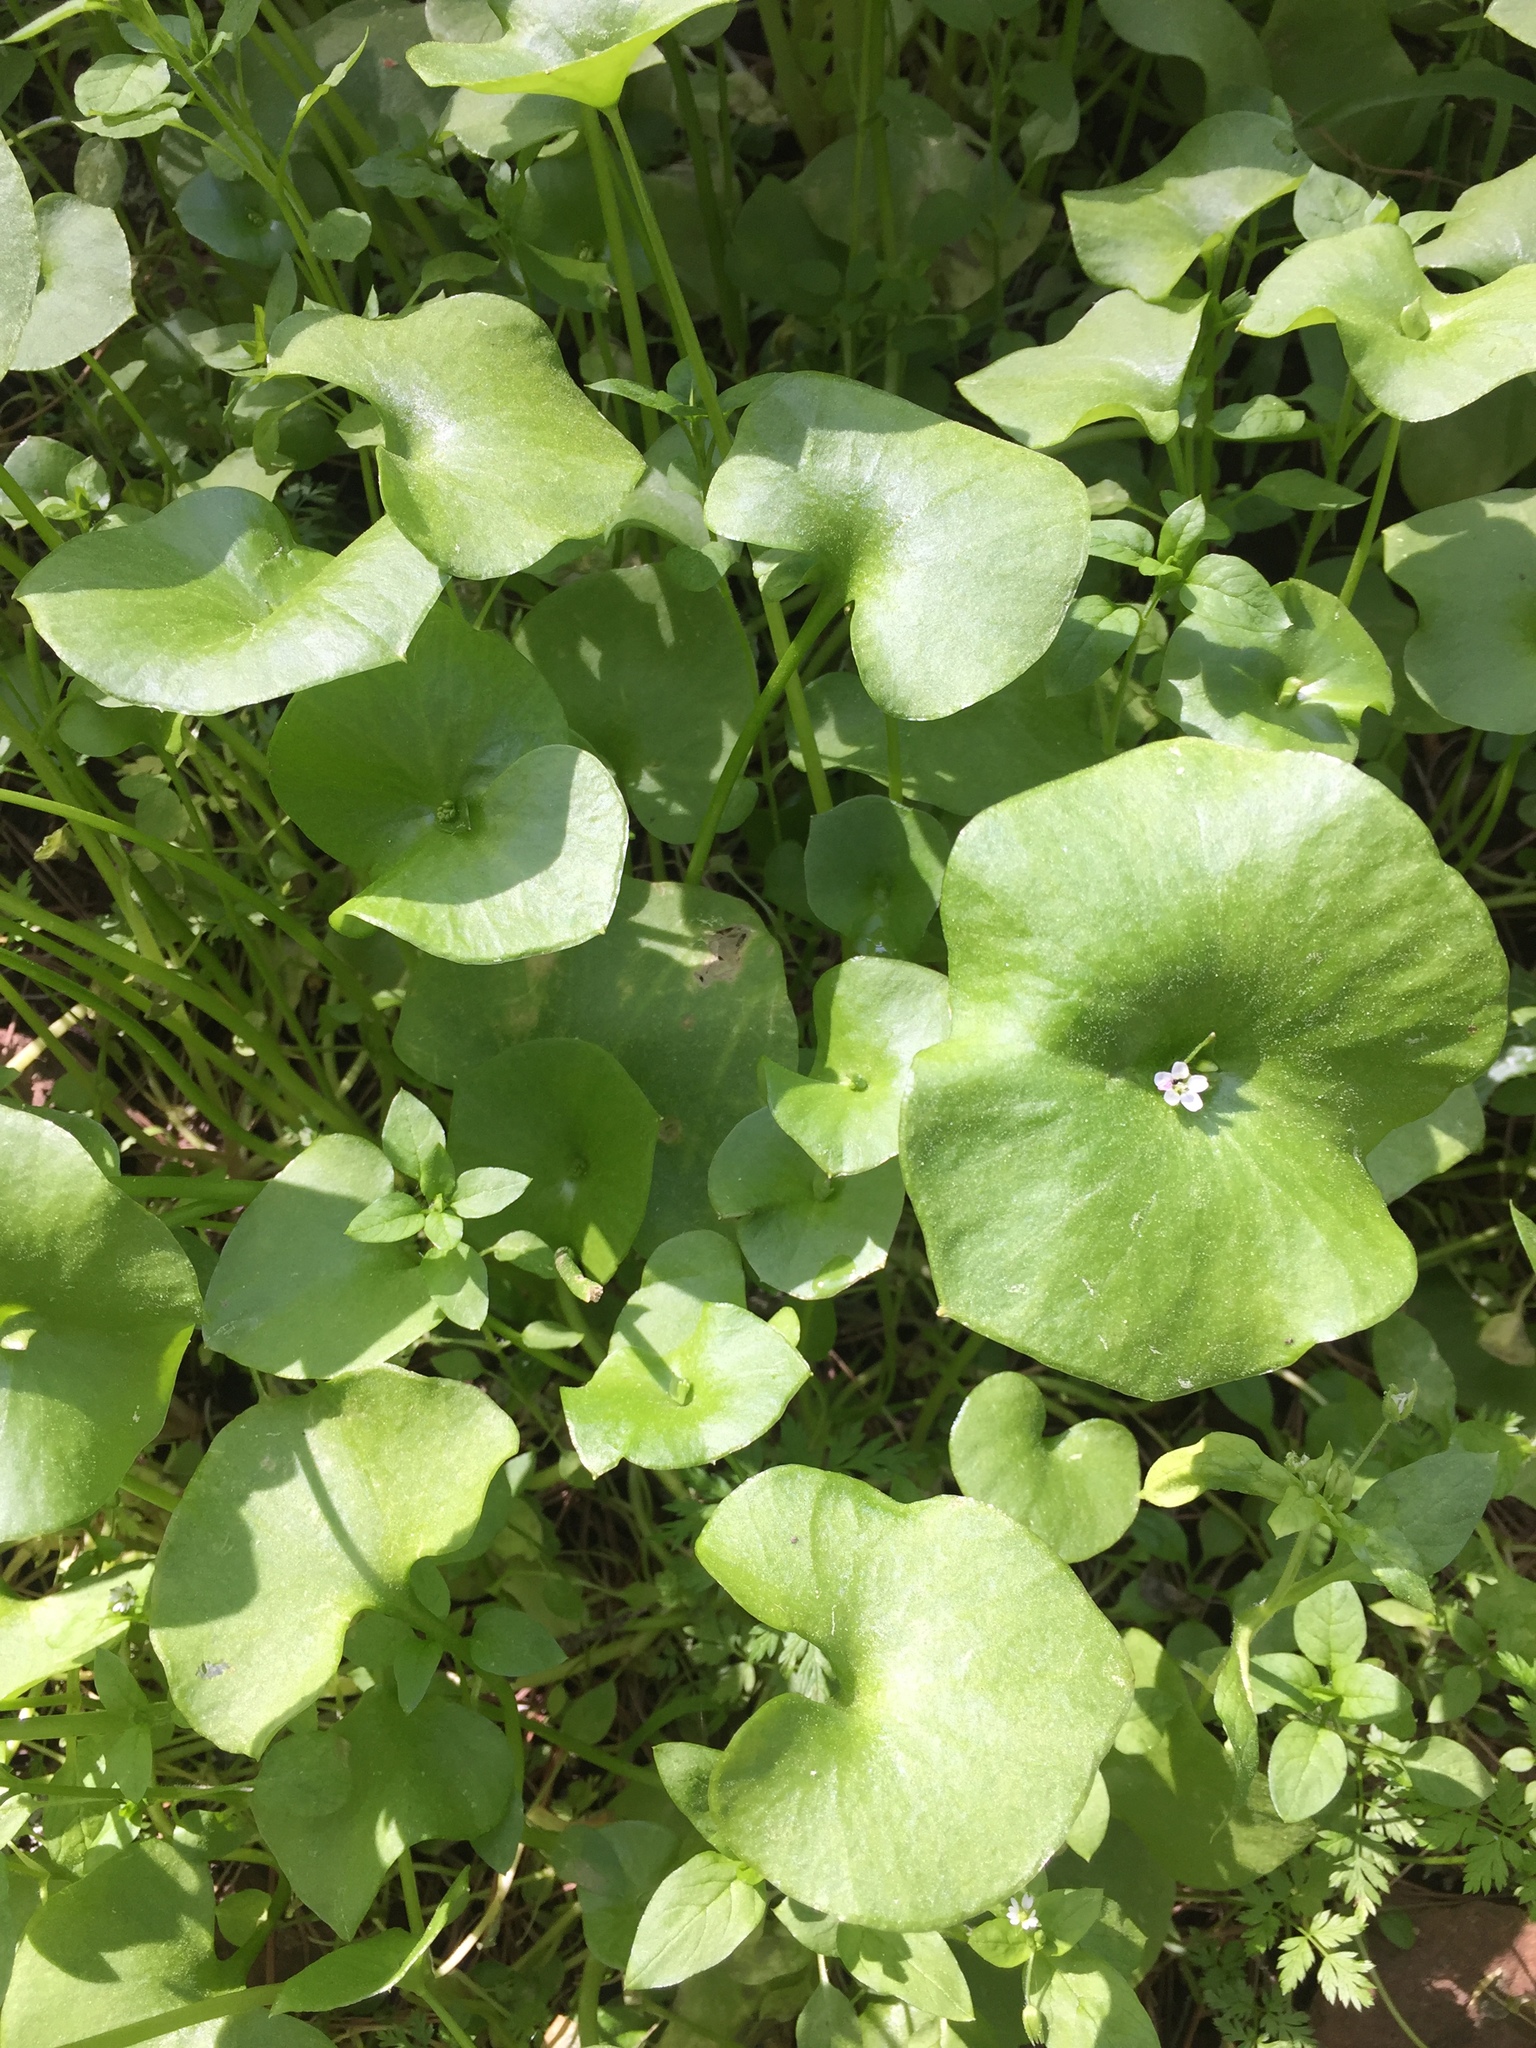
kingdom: Plantae
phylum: Tracheophyta
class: Magnoliopsida
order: Caryophyllales
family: Montiaceae
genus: Claytonia
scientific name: Claytonia perfoliata
